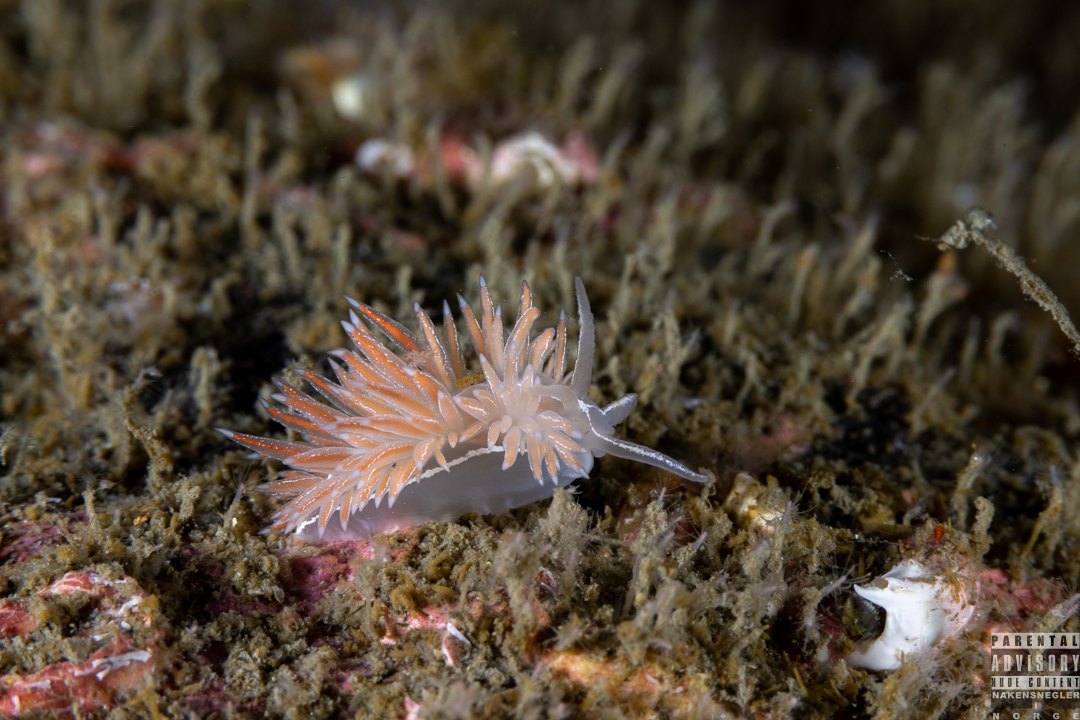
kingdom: Animalia
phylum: Mollusca
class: Gastropoda
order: Nudibranchia
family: Coryphellidae
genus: Coryphella
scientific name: Coryphella chriskaugei
